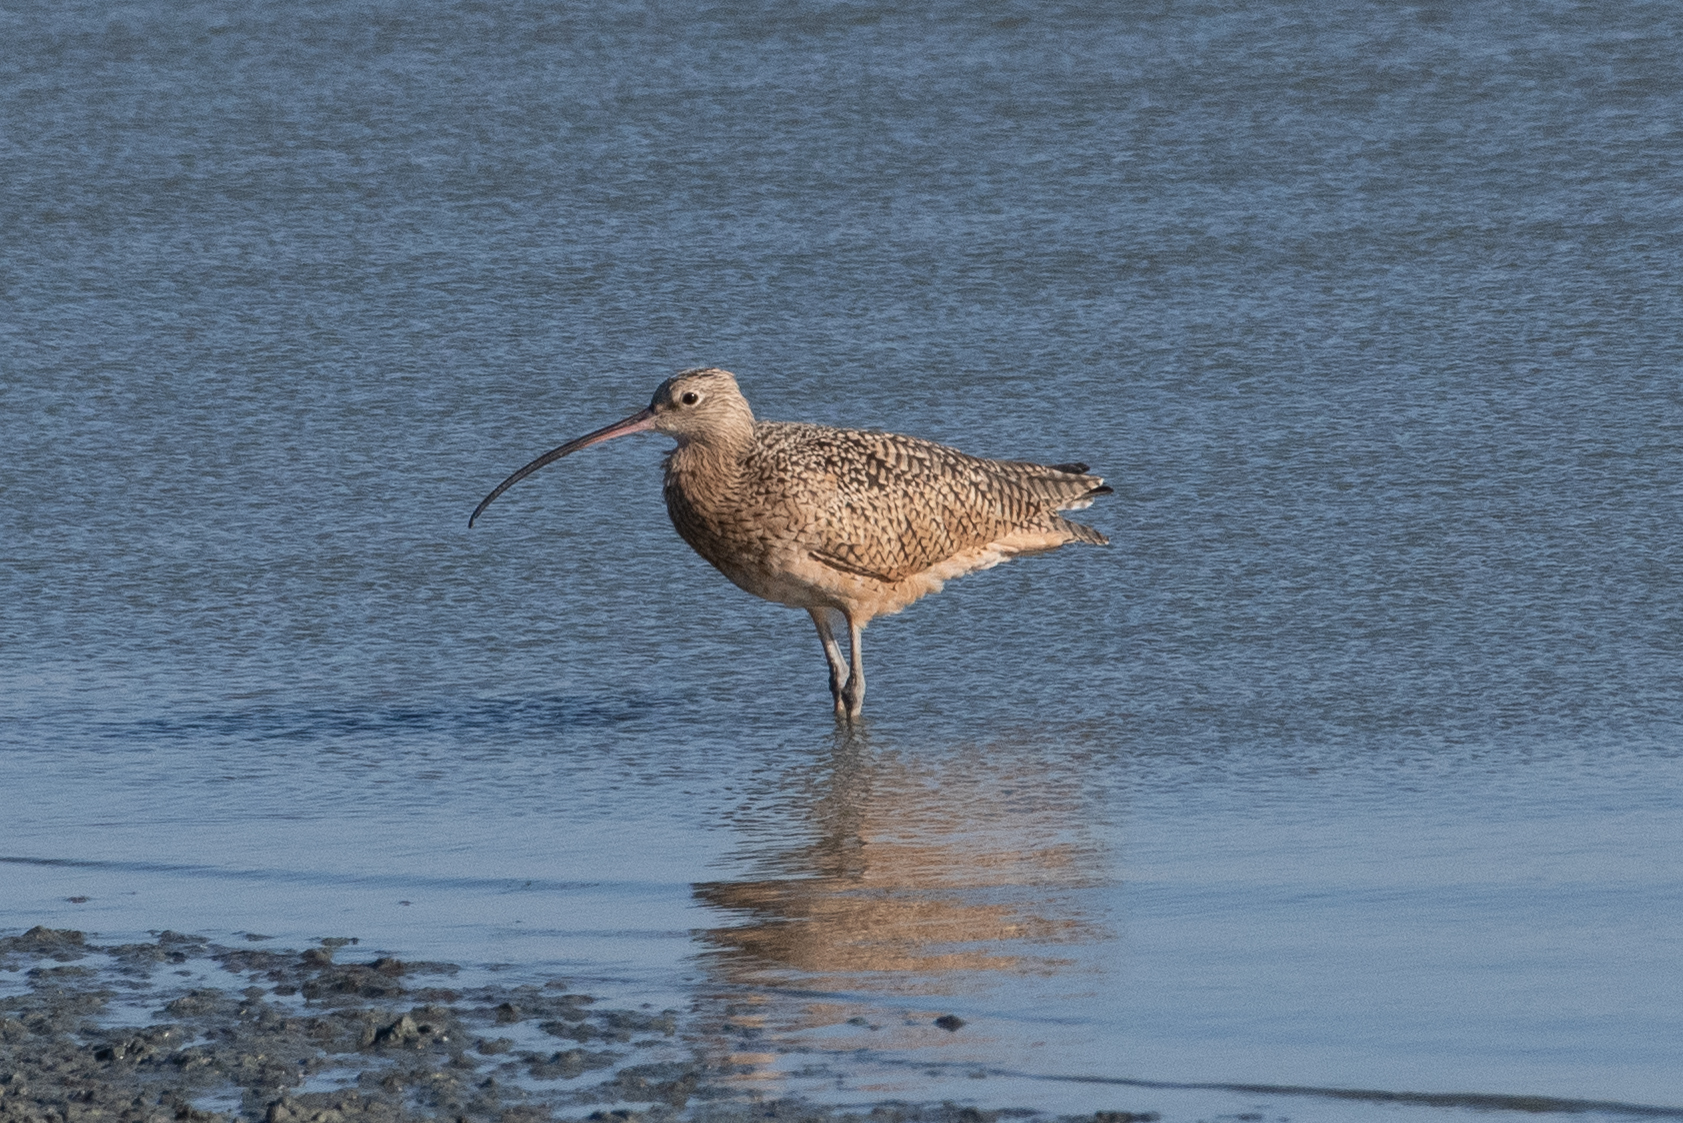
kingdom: Animalia
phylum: Chordata
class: Aves
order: Charadriiformes
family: Scolopacidae
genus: Numenius
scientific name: Numenius americanus
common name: Long-billed curlew
